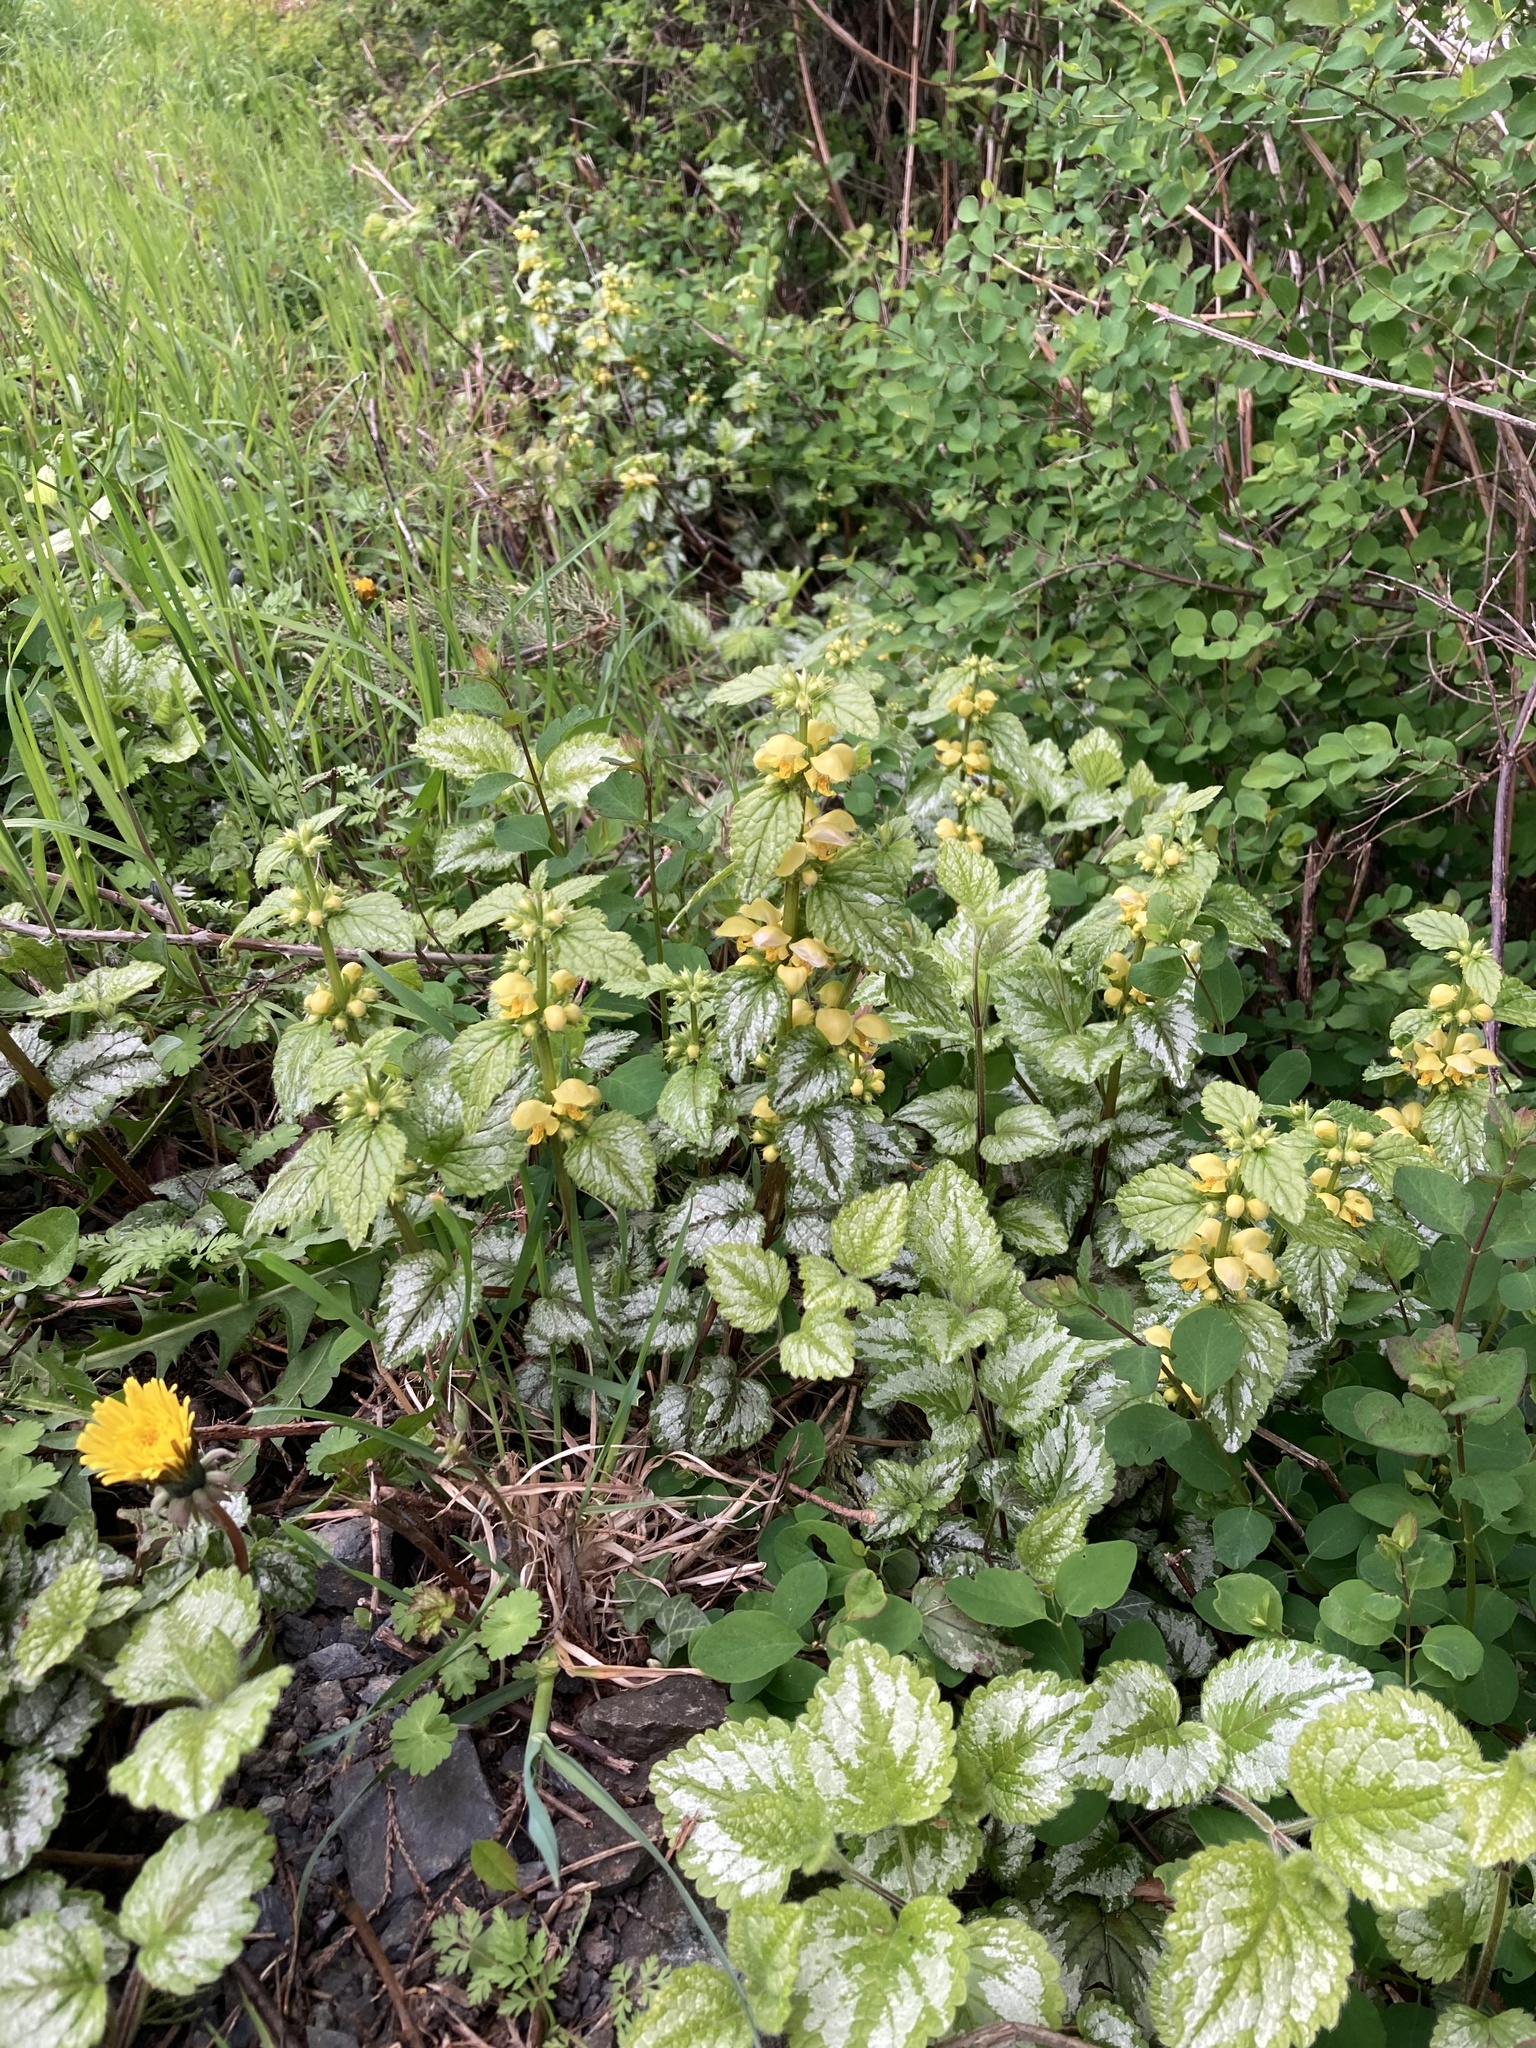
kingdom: Plantae
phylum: Tracheophyta
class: Magnoliopsida
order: Lamiales
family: Lamiaceae
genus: Lamium
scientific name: Lamium galeobdolon
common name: Yellow archangel
